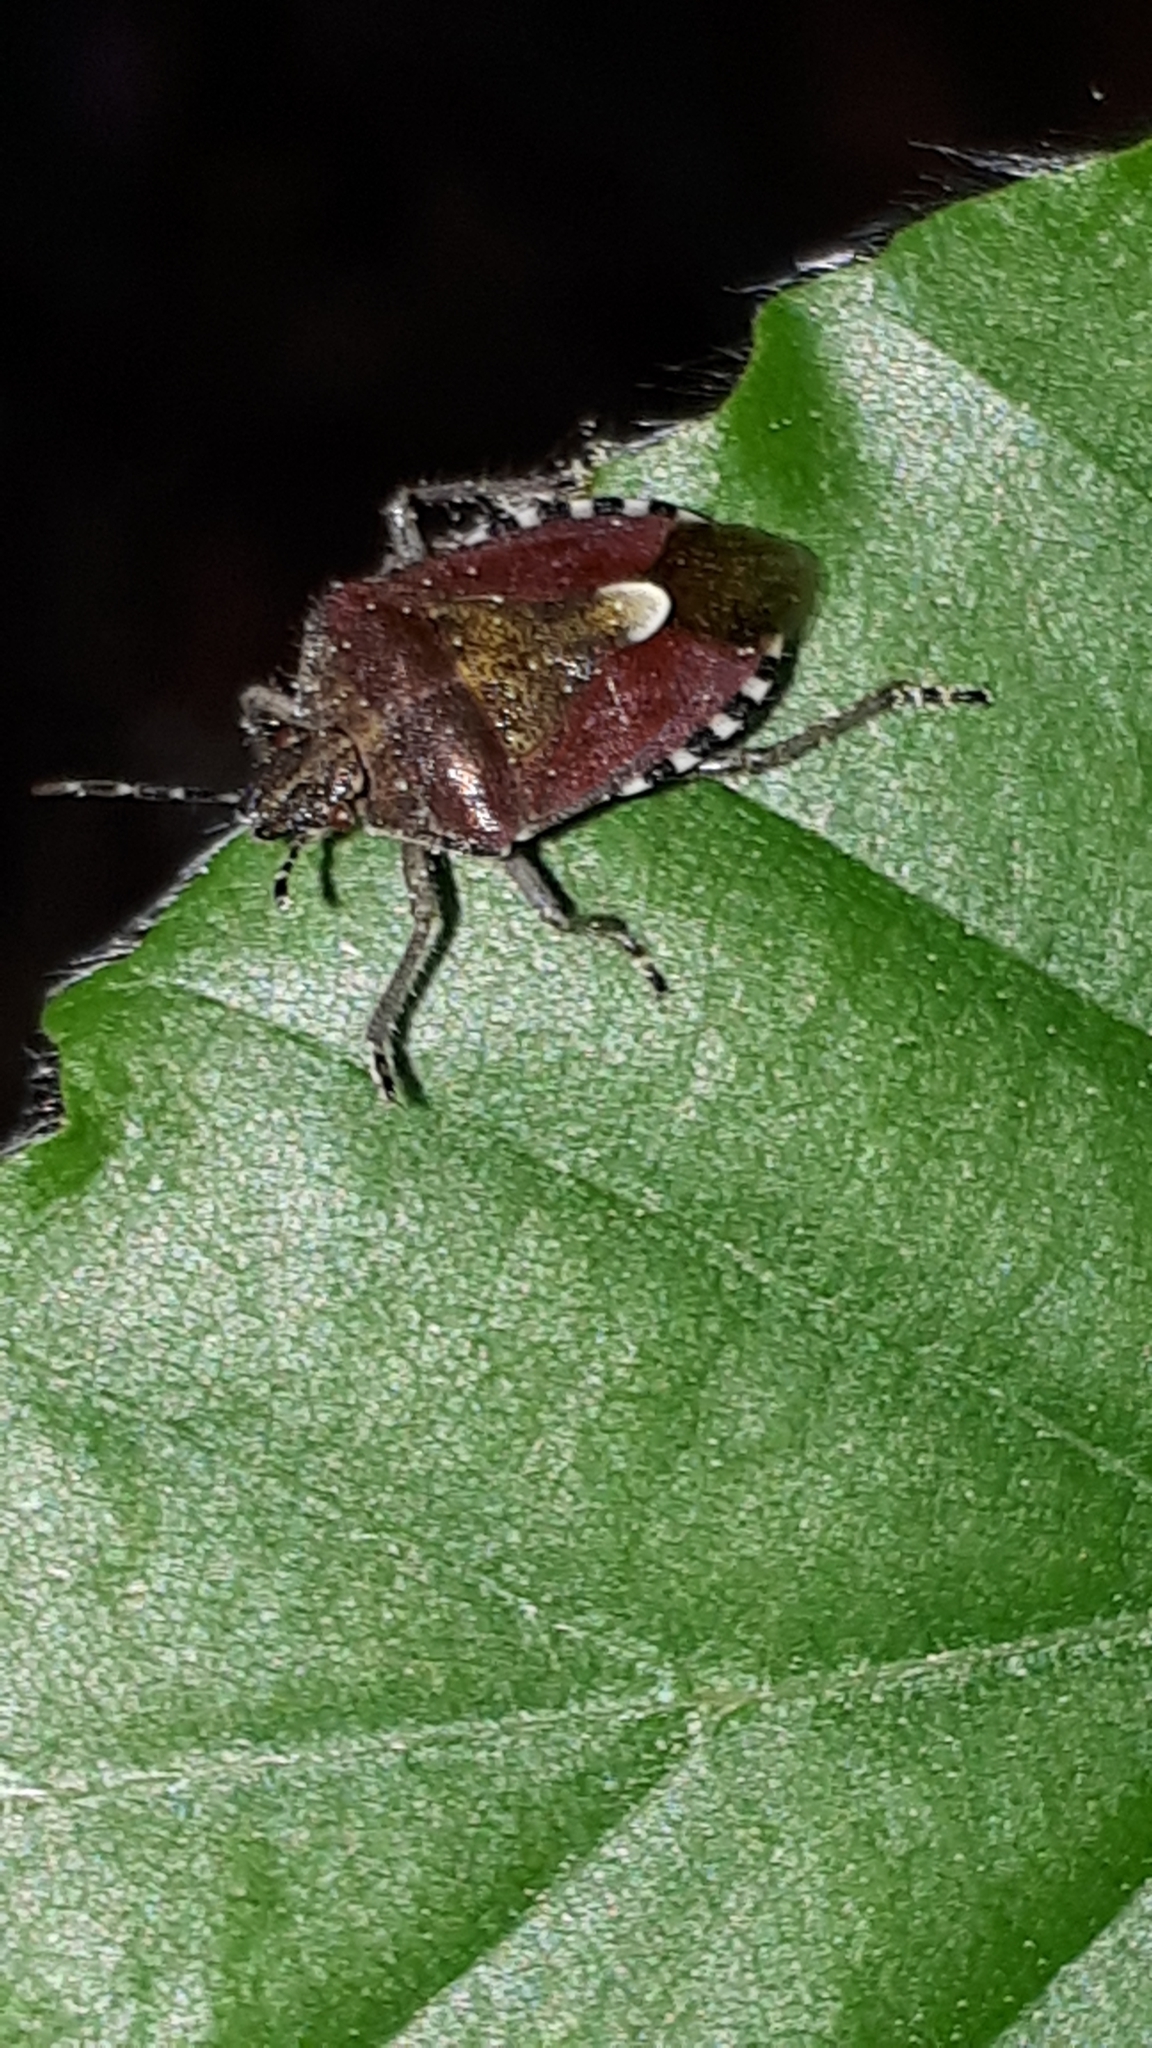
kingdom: Animalia
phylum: Arthropoda
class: Insecta
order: Hemiptera
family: Pentatomidae
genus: Dolycoris
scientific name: Dolycoris baccarum
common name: Sloe bug
